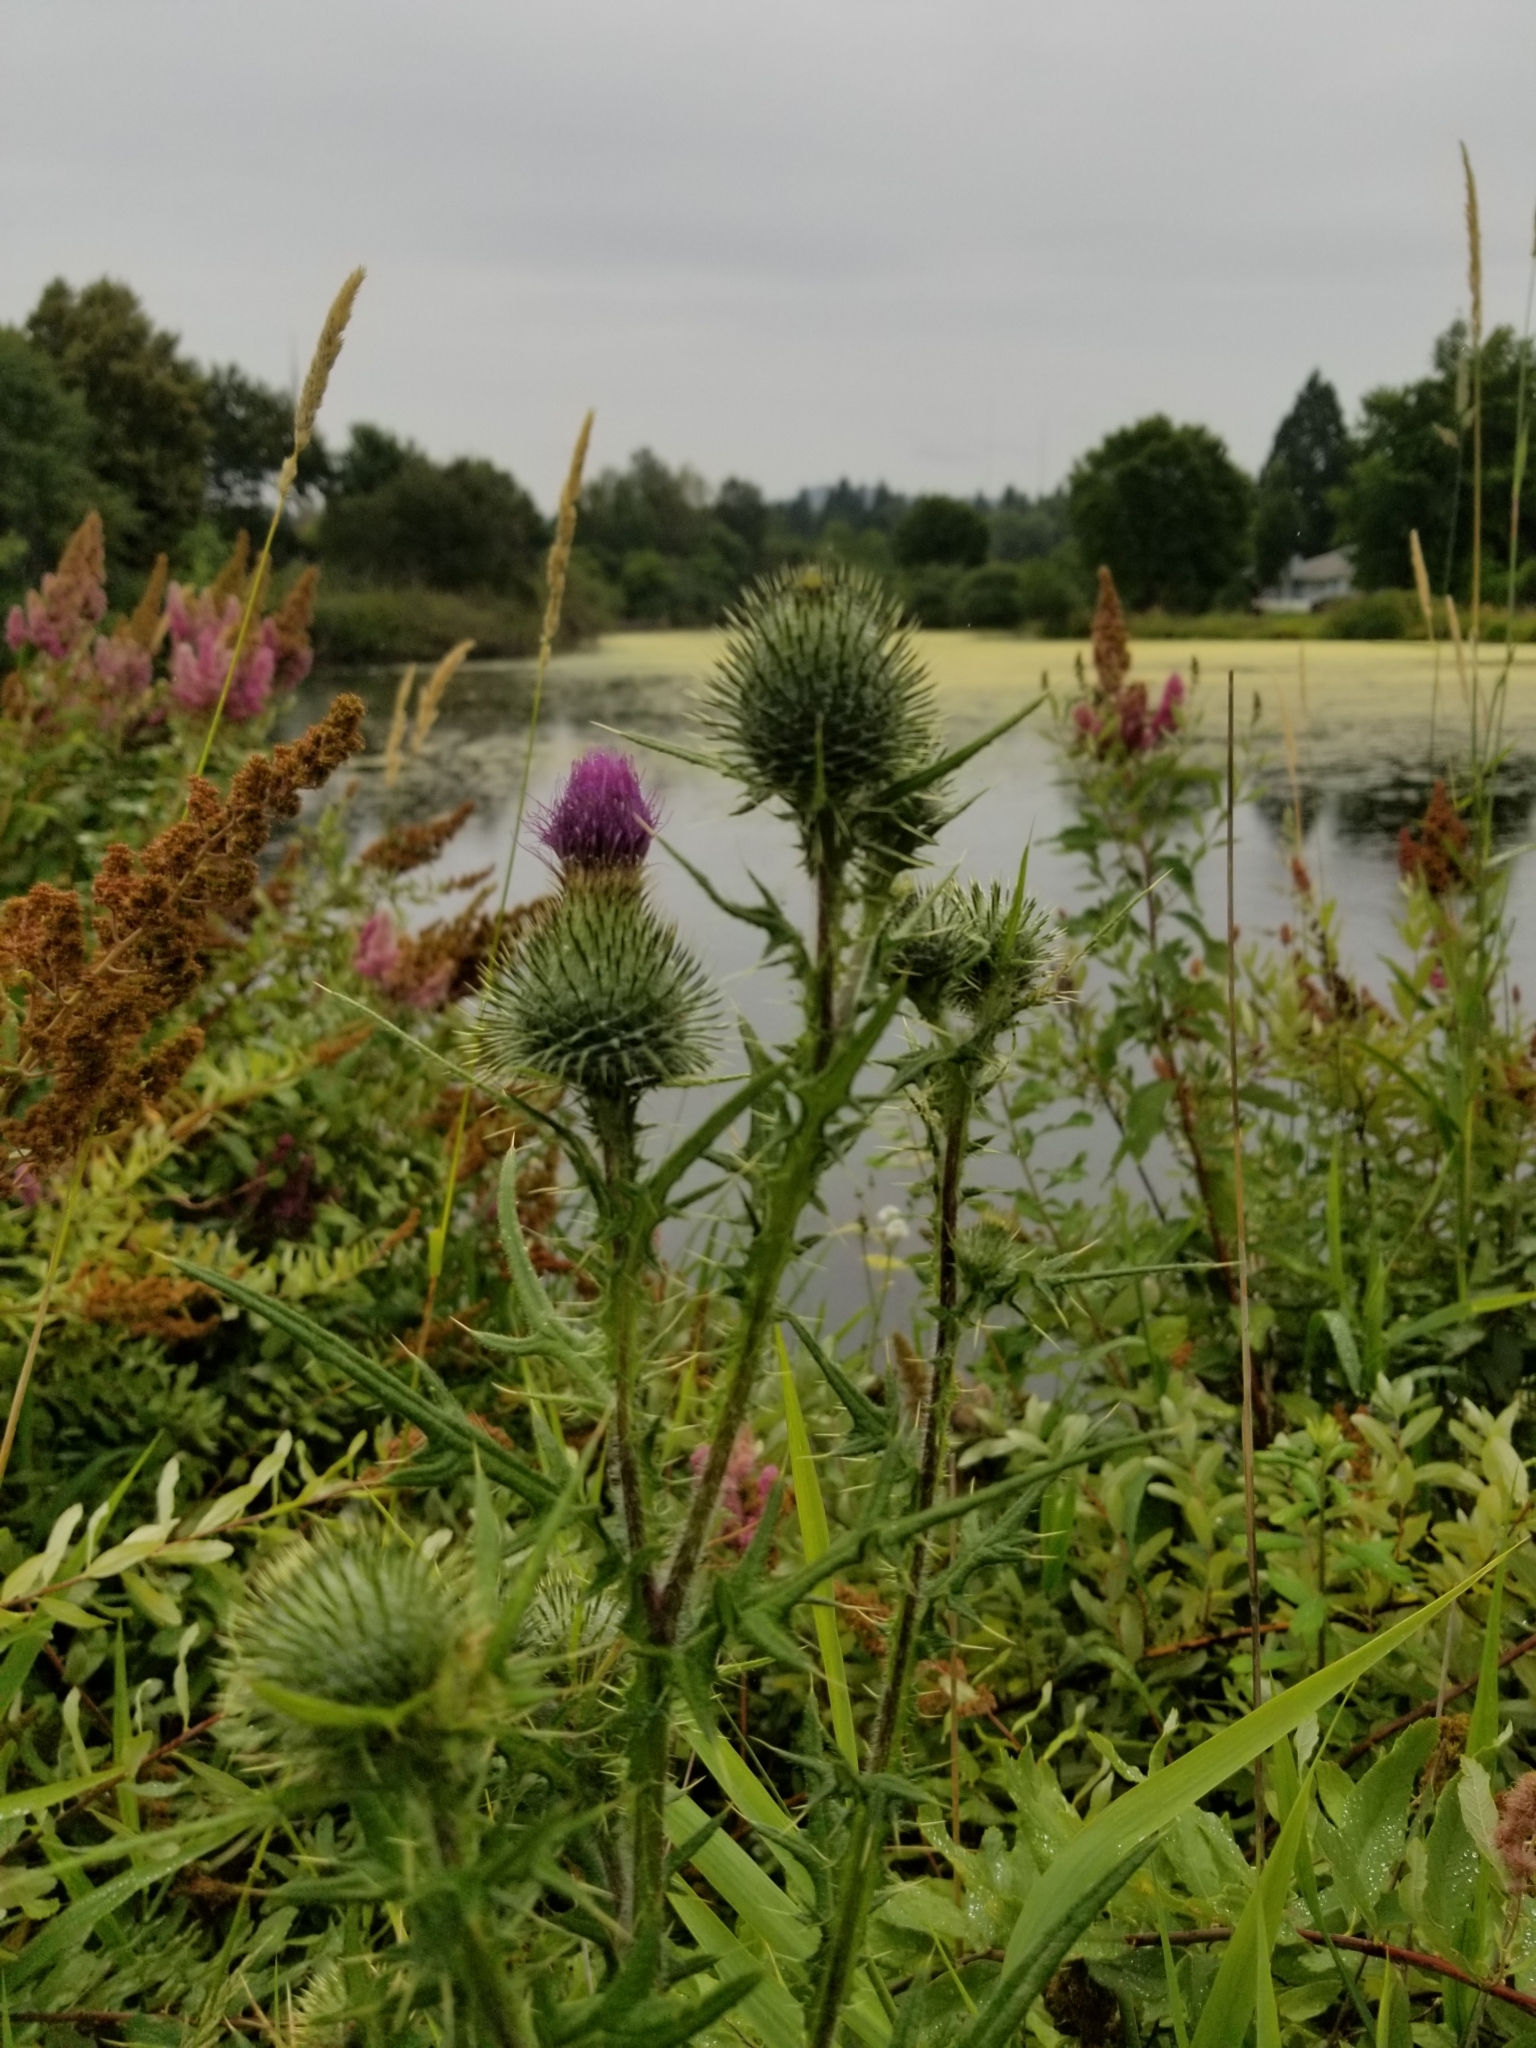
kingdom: Plantae
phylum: Tracheophyta
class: Magnoliopsida
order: Asterales
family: Asteraceae
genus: Cirsium
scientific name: Cirsium vulgare
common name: Bull thistle
